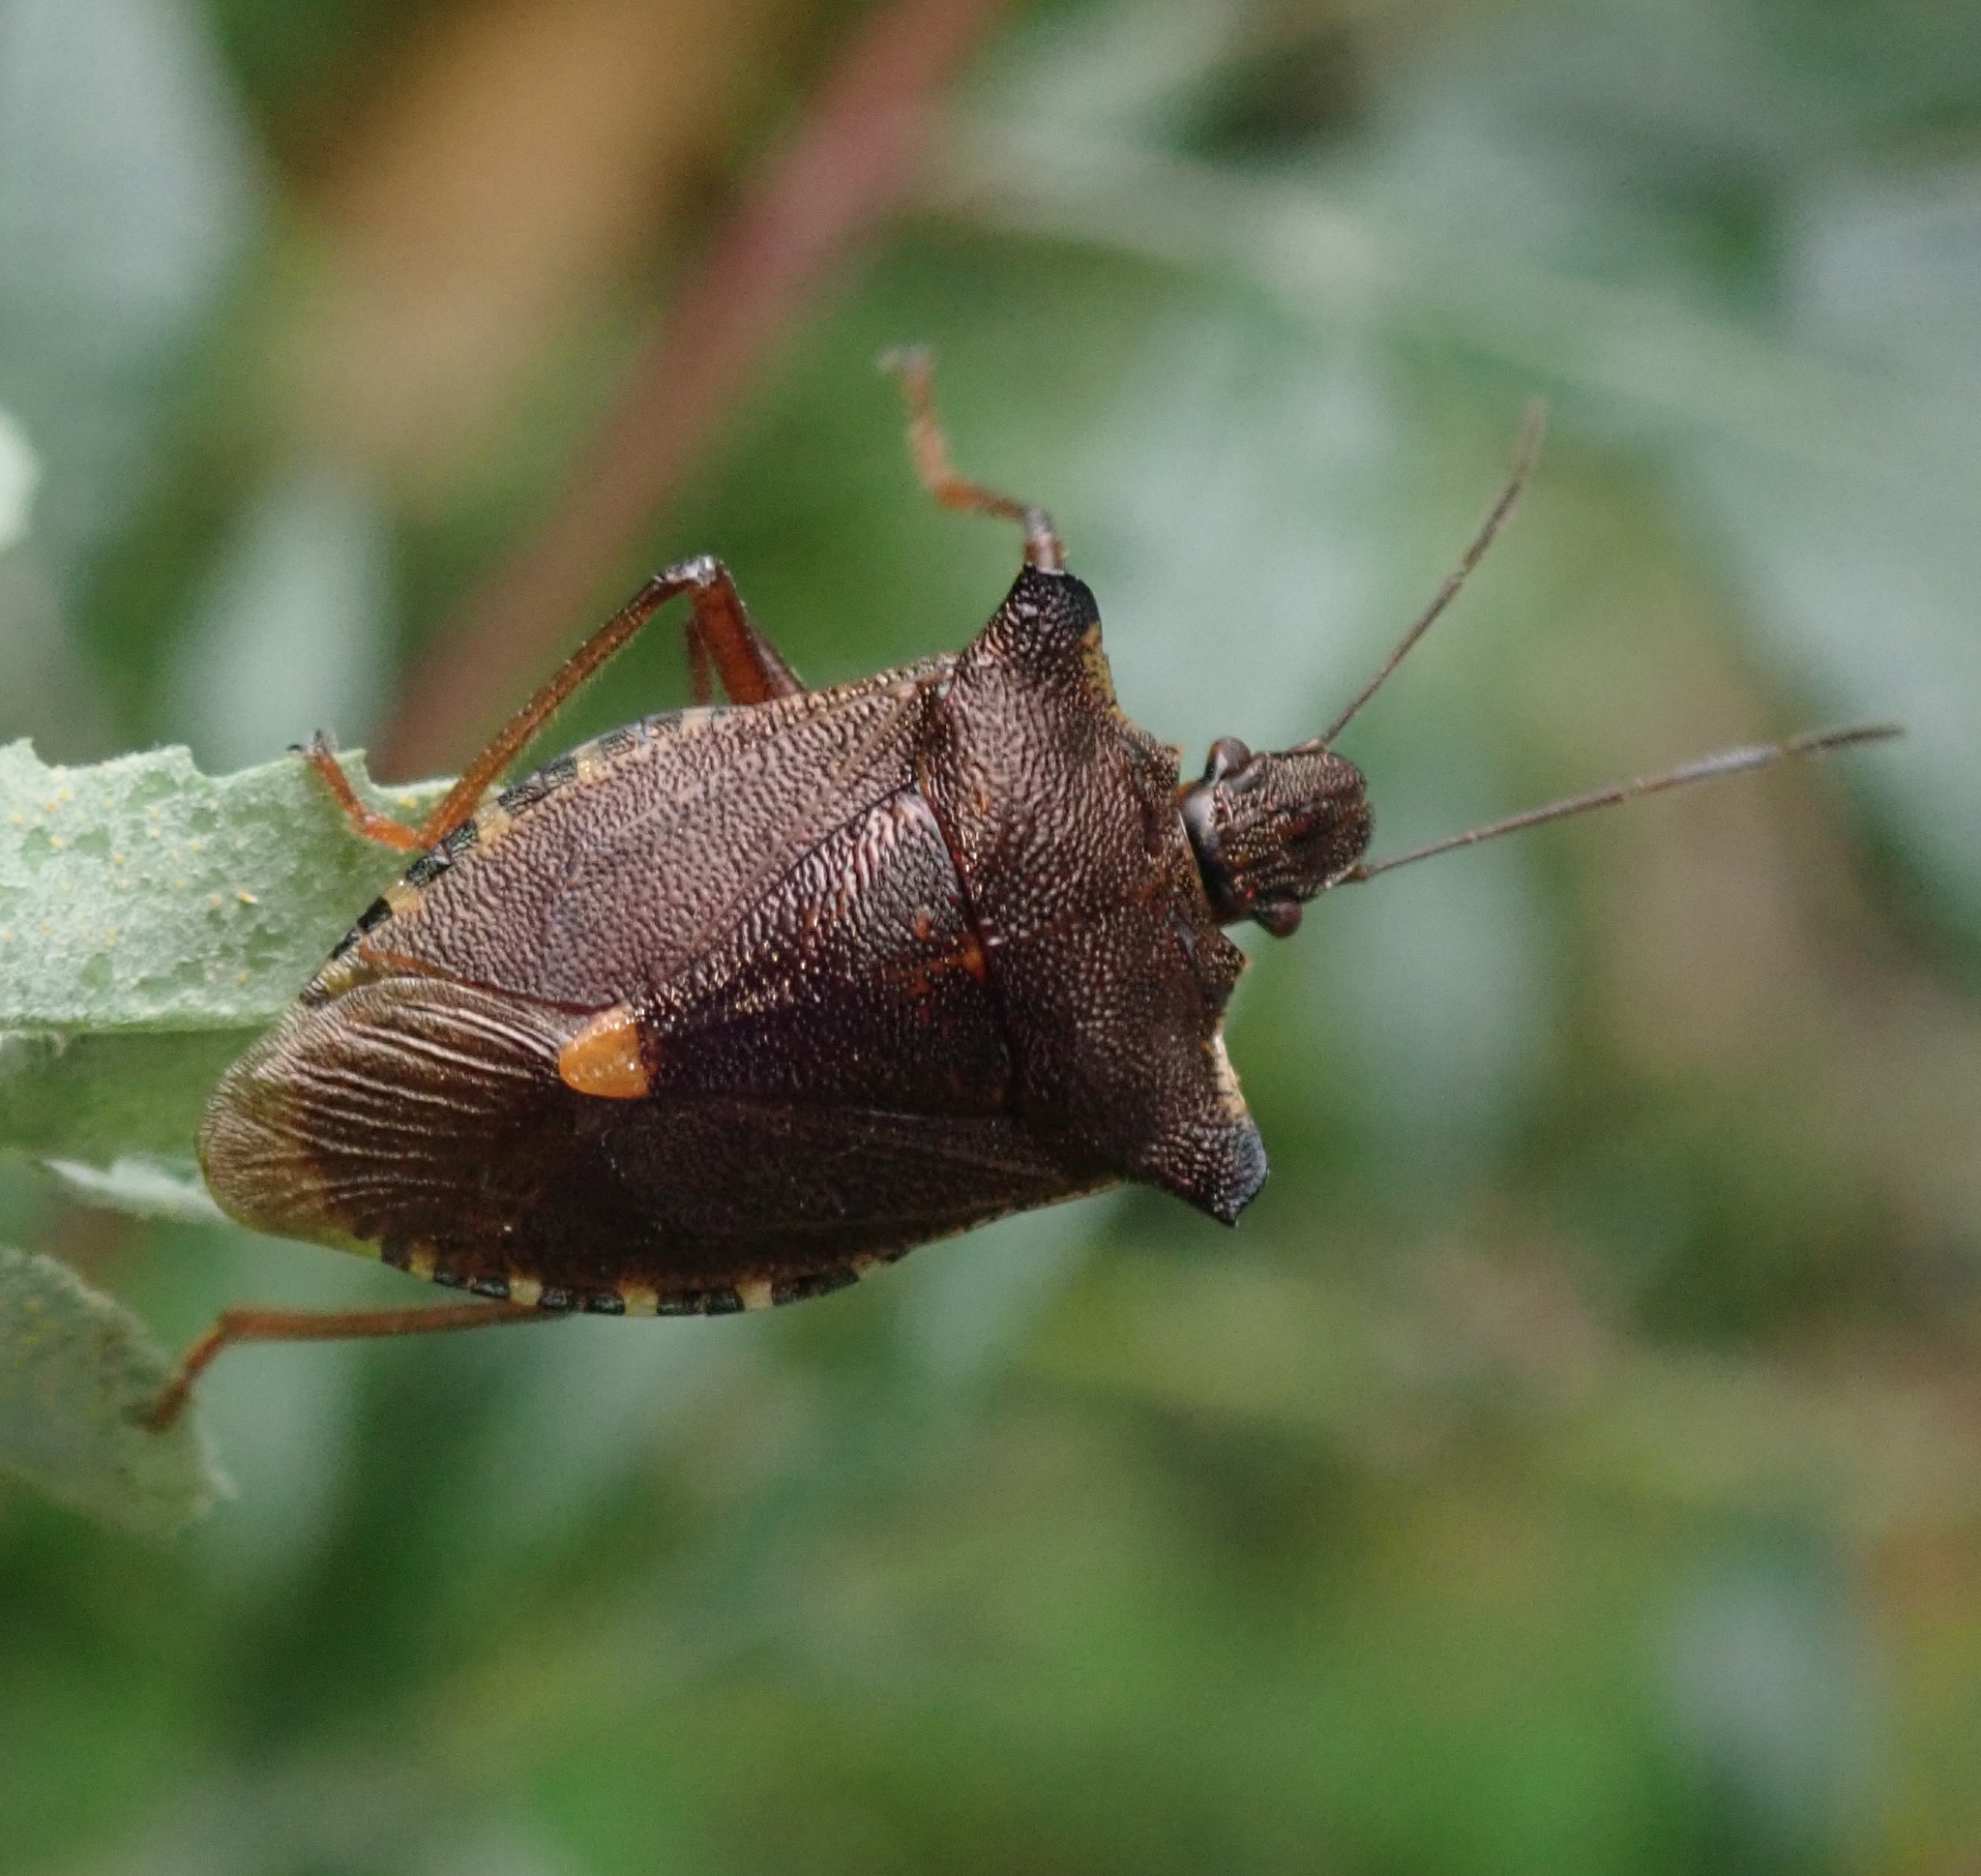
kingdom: Animalia
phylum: Arthropoda
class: Insecta
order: Hemiptera
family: Pentatomidae
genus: Pentatoma
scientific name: Pentatoma rufipes
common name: Forest bug
